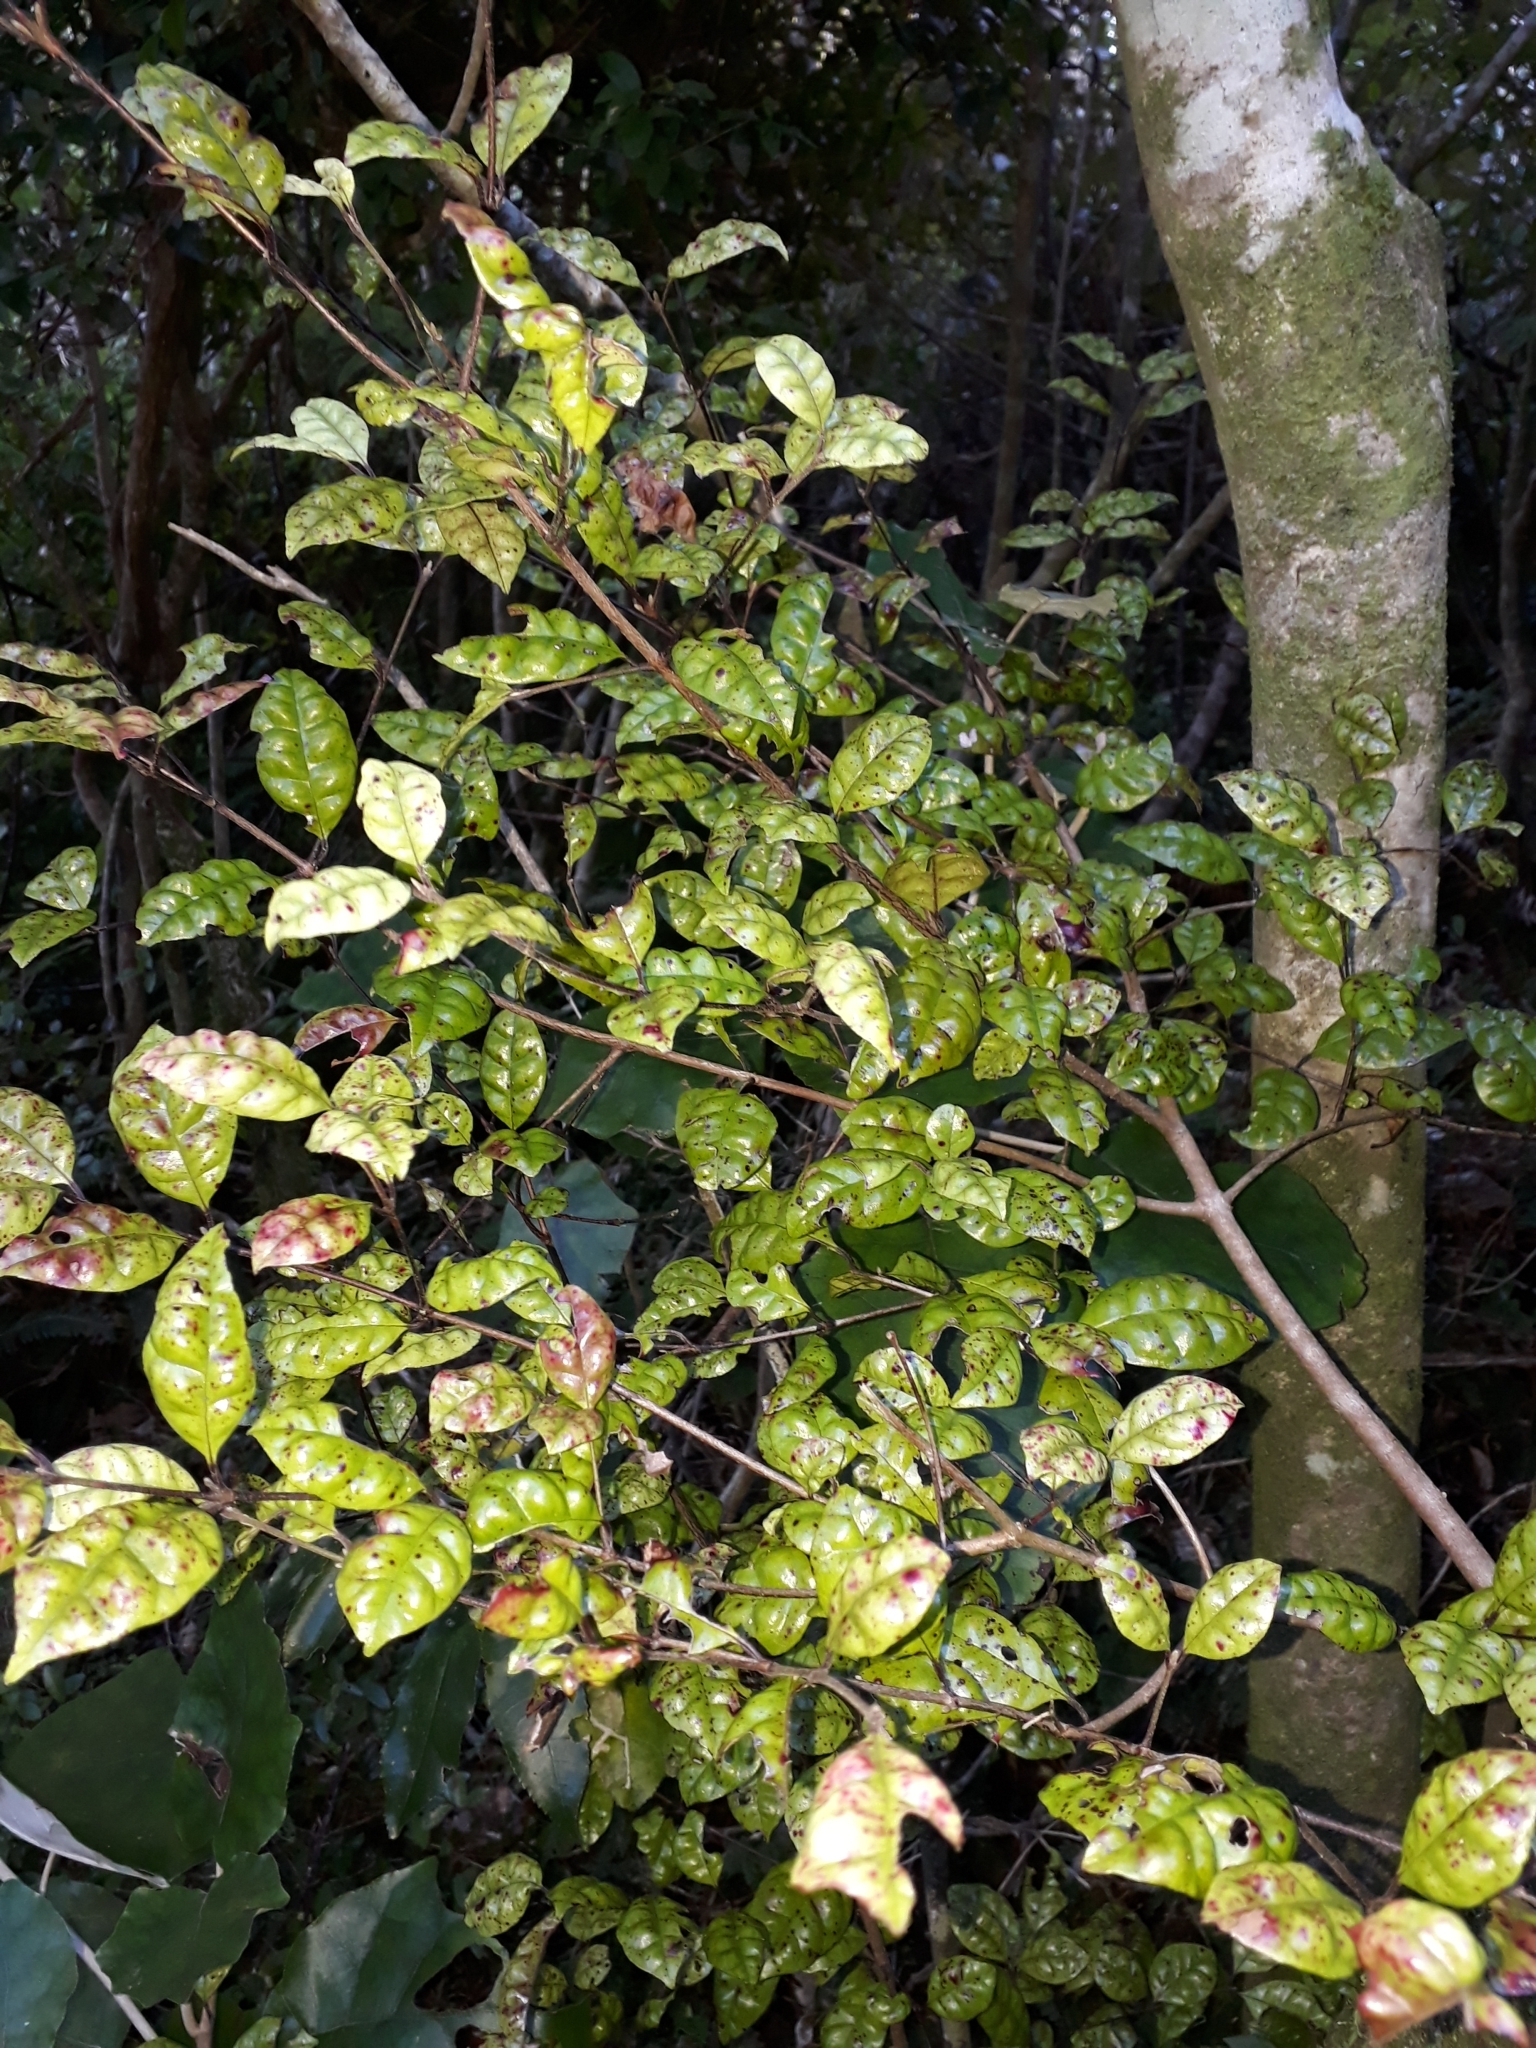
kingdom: Plantae
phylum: Tracheophyta
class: Magnoliopsida
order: Myrtales
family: Myrtaceae
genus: Lophomyrtus
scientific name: Lophomyrtus bullata
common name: Rama rama
